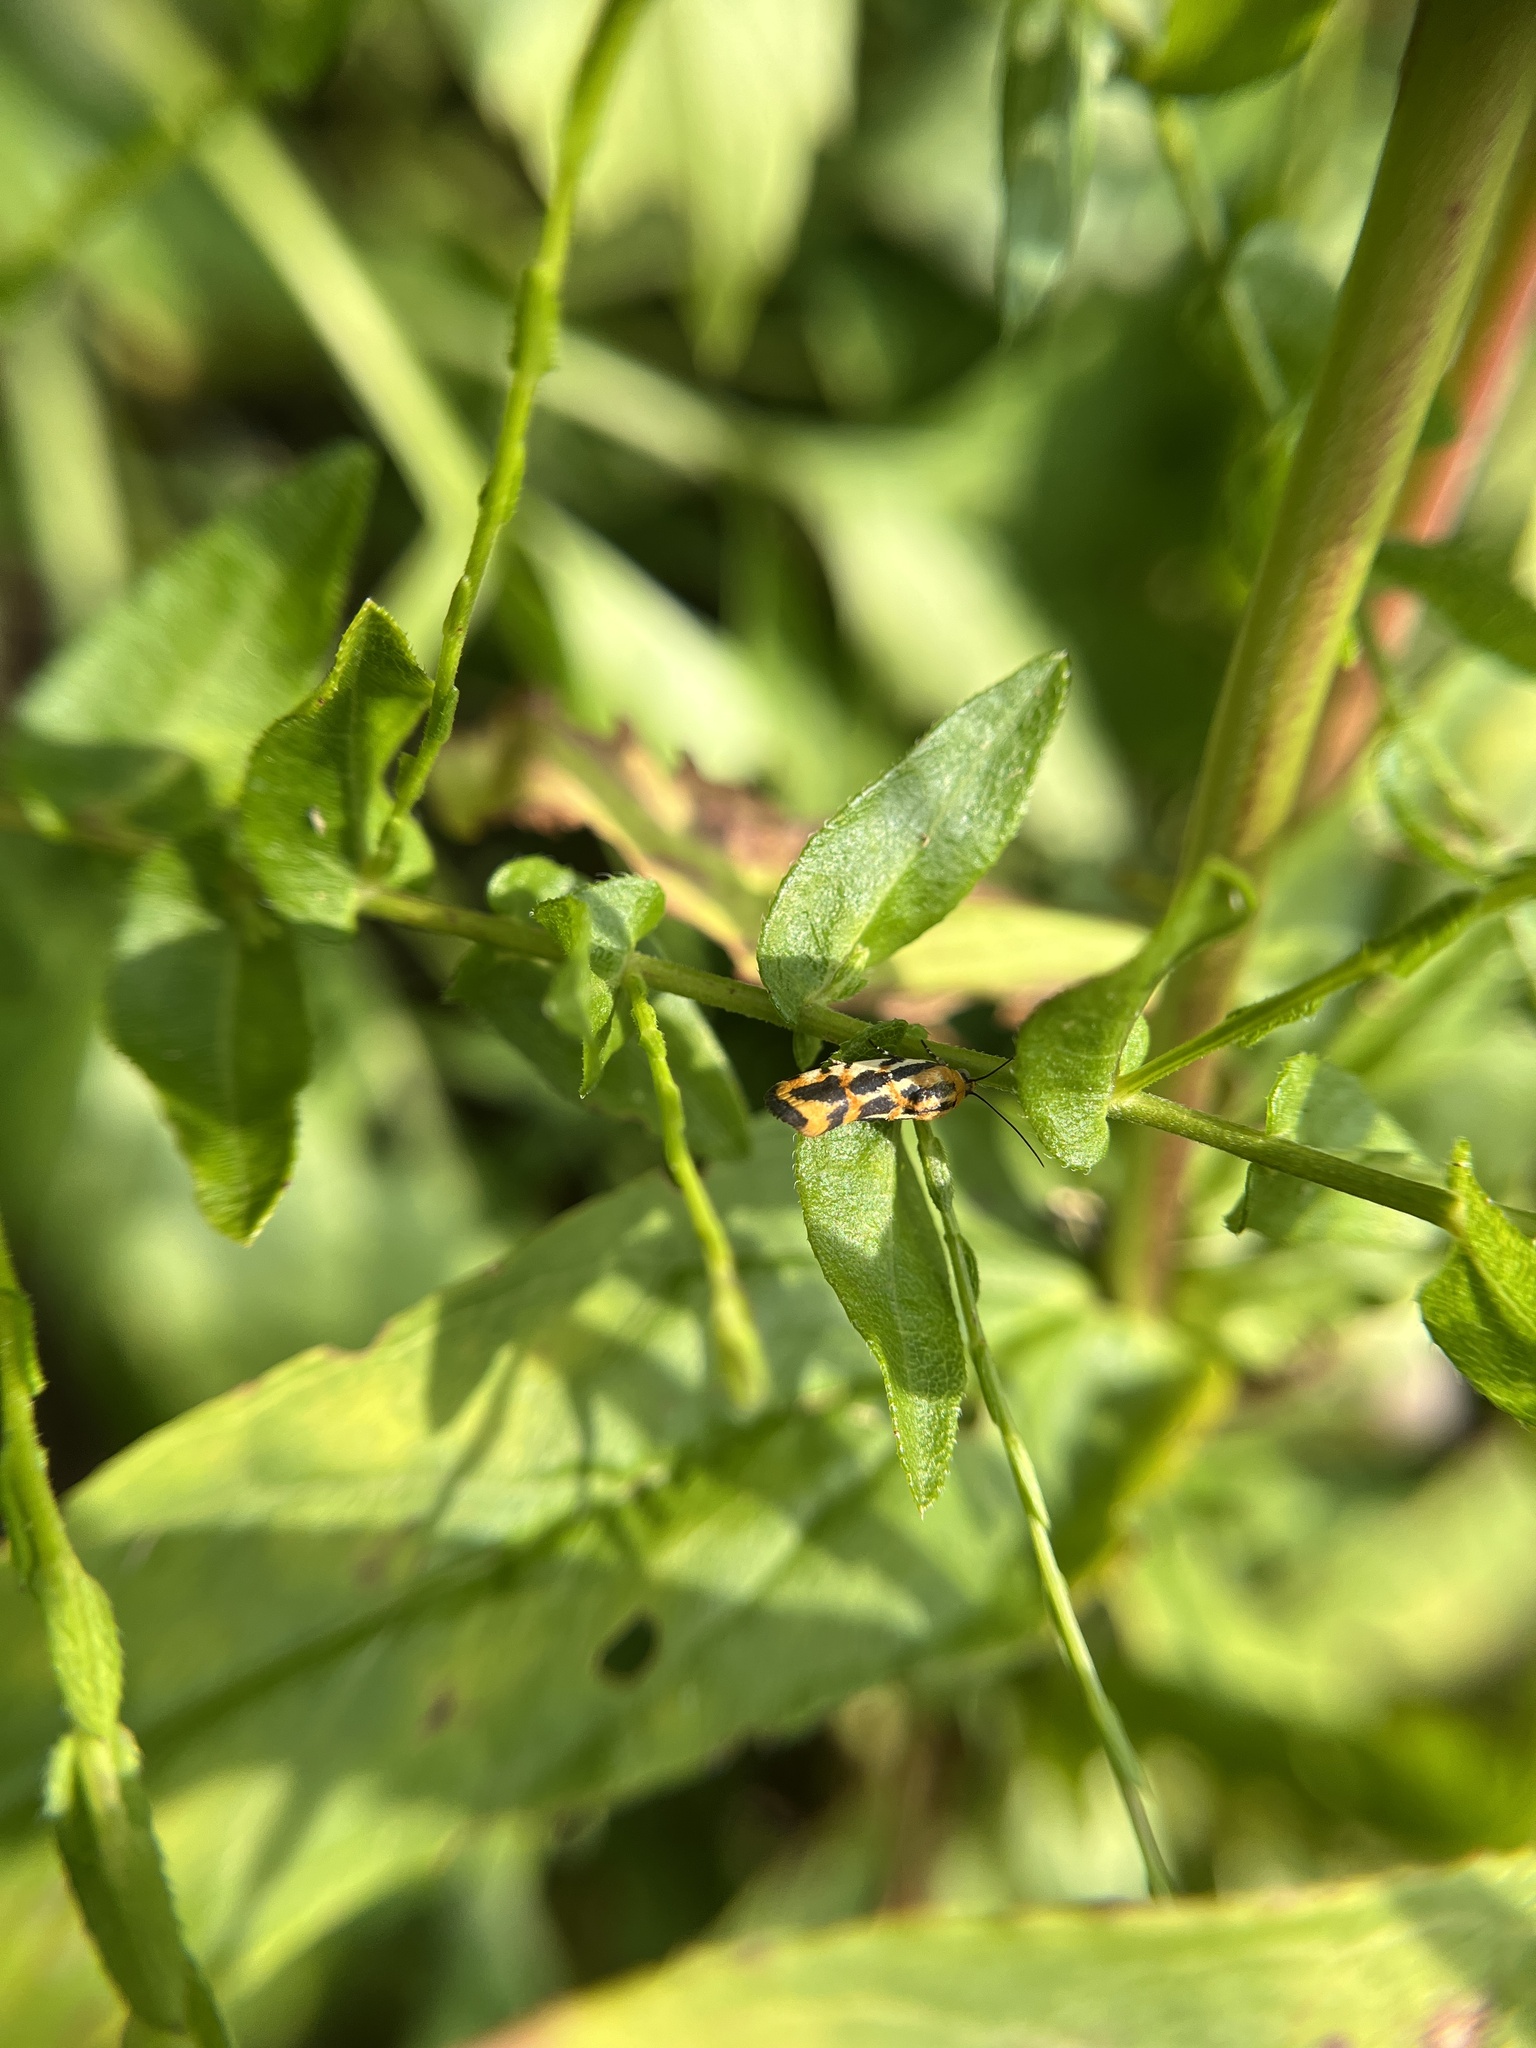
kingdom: Animalia
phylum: Arthropoda
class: Insecta
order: Lepidoptera
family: Noctuidae
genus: Acontia
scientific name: Acontia leo
